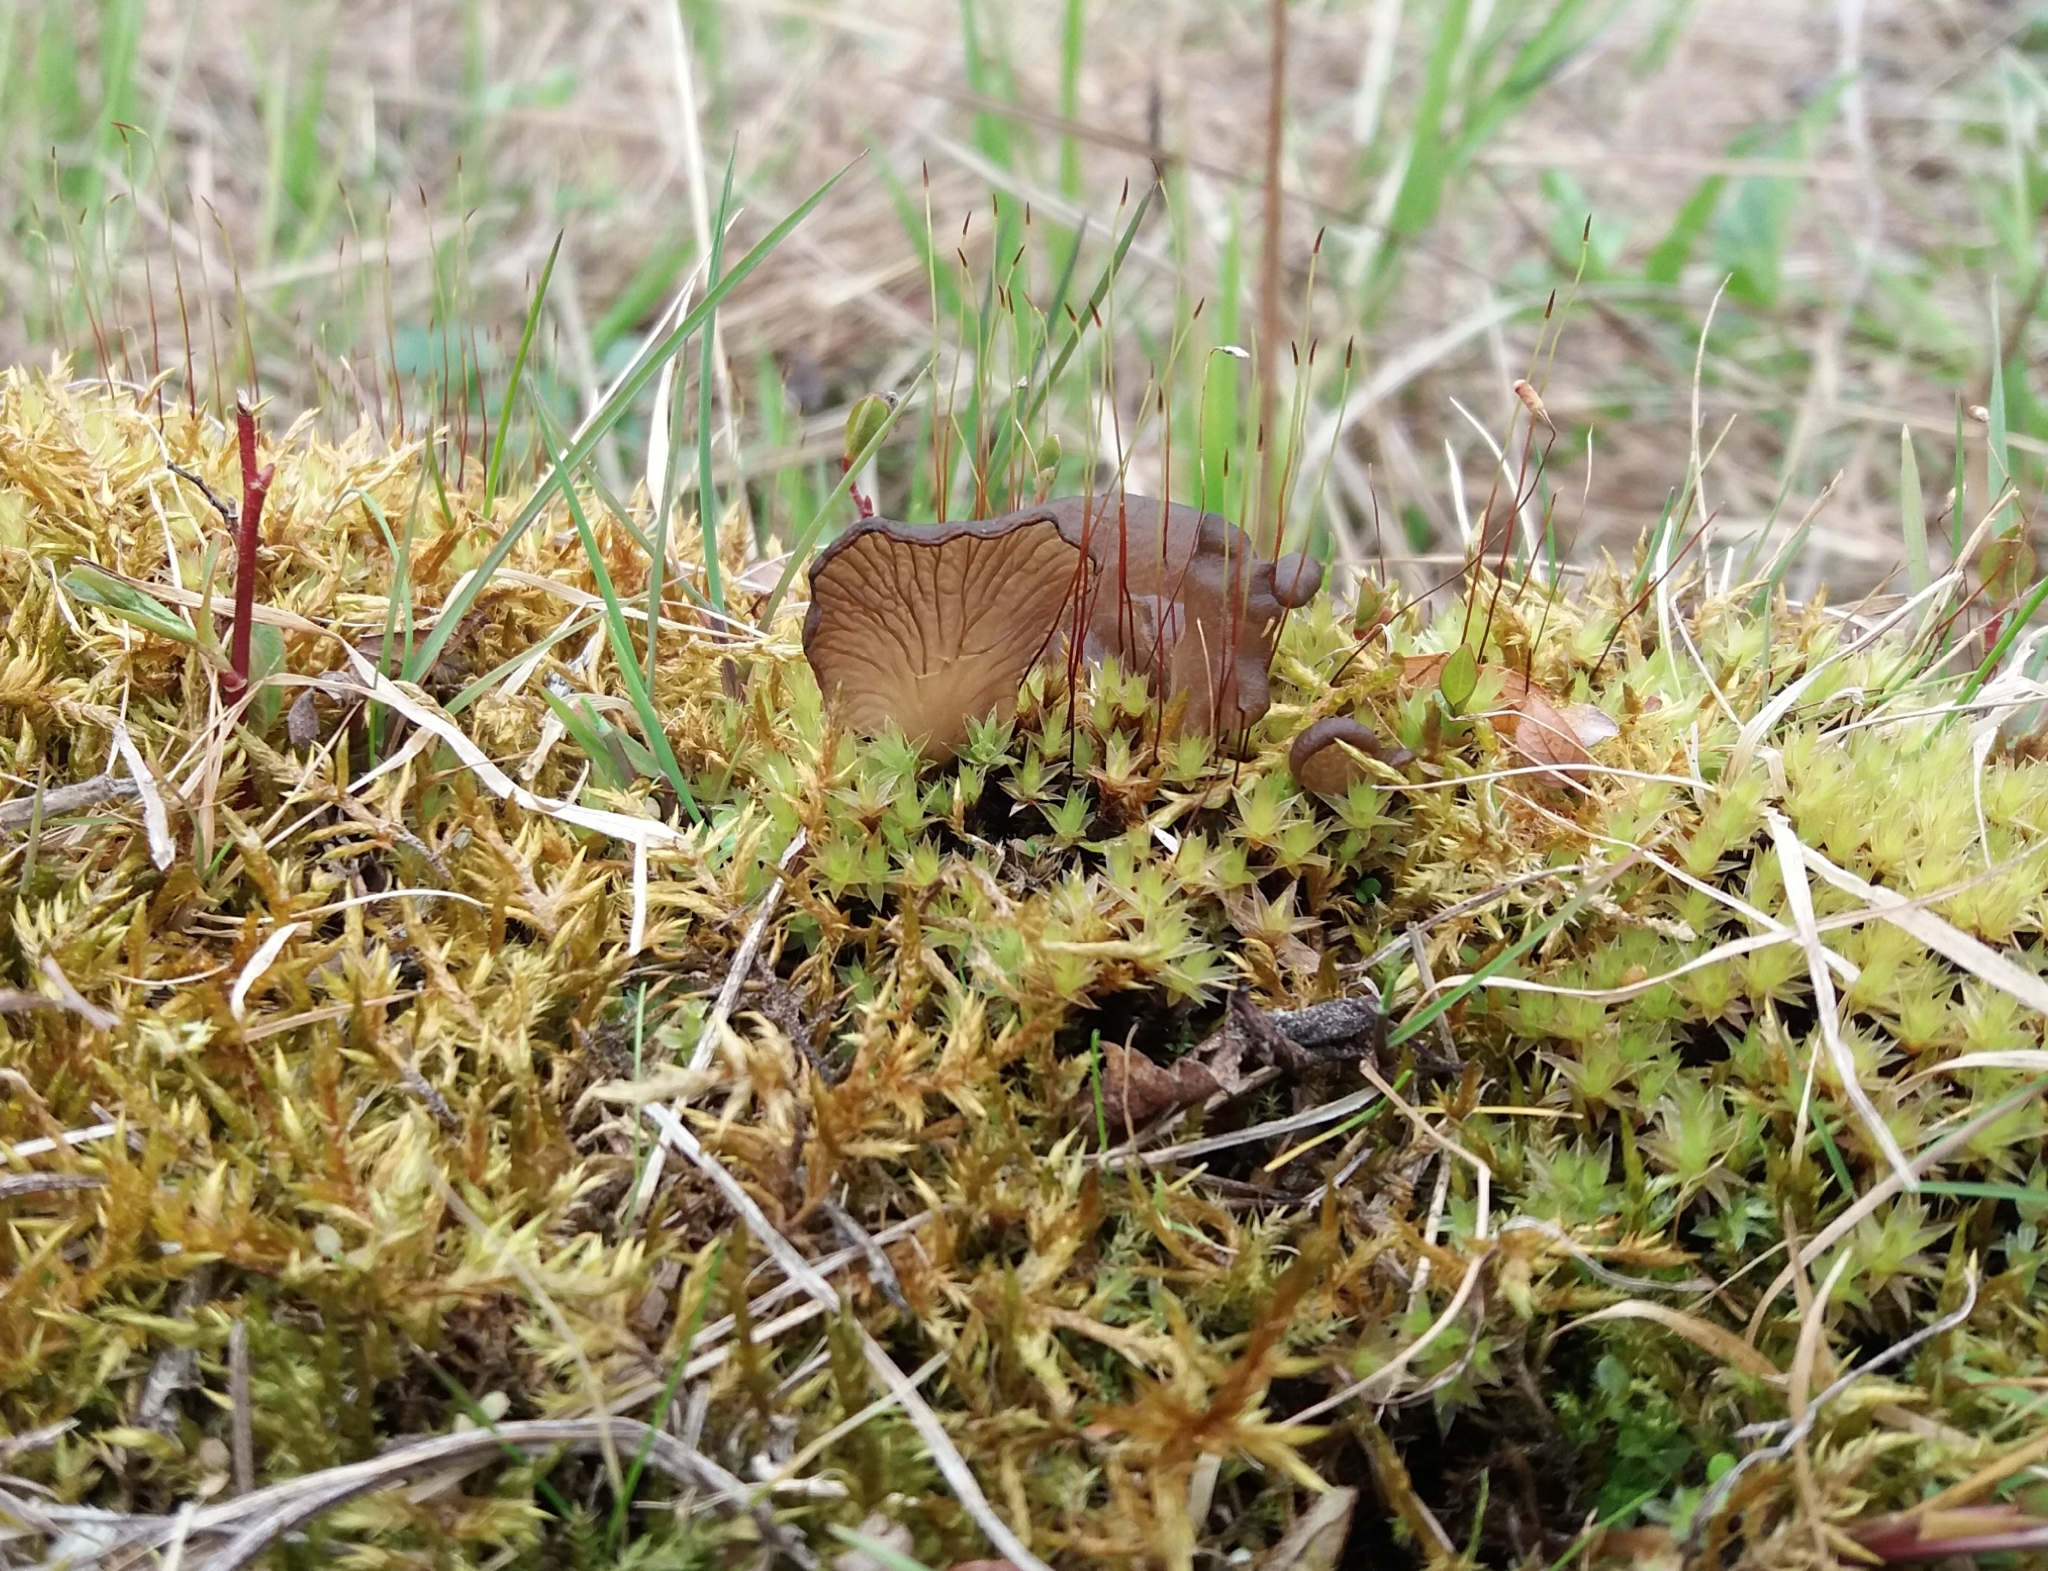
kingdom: Fungi
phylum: Basidiomycota
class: Agaricomycetes
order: Agaricales
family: Hygrophoraceae
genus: Arrhenia
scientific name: Arrhenia lobata
